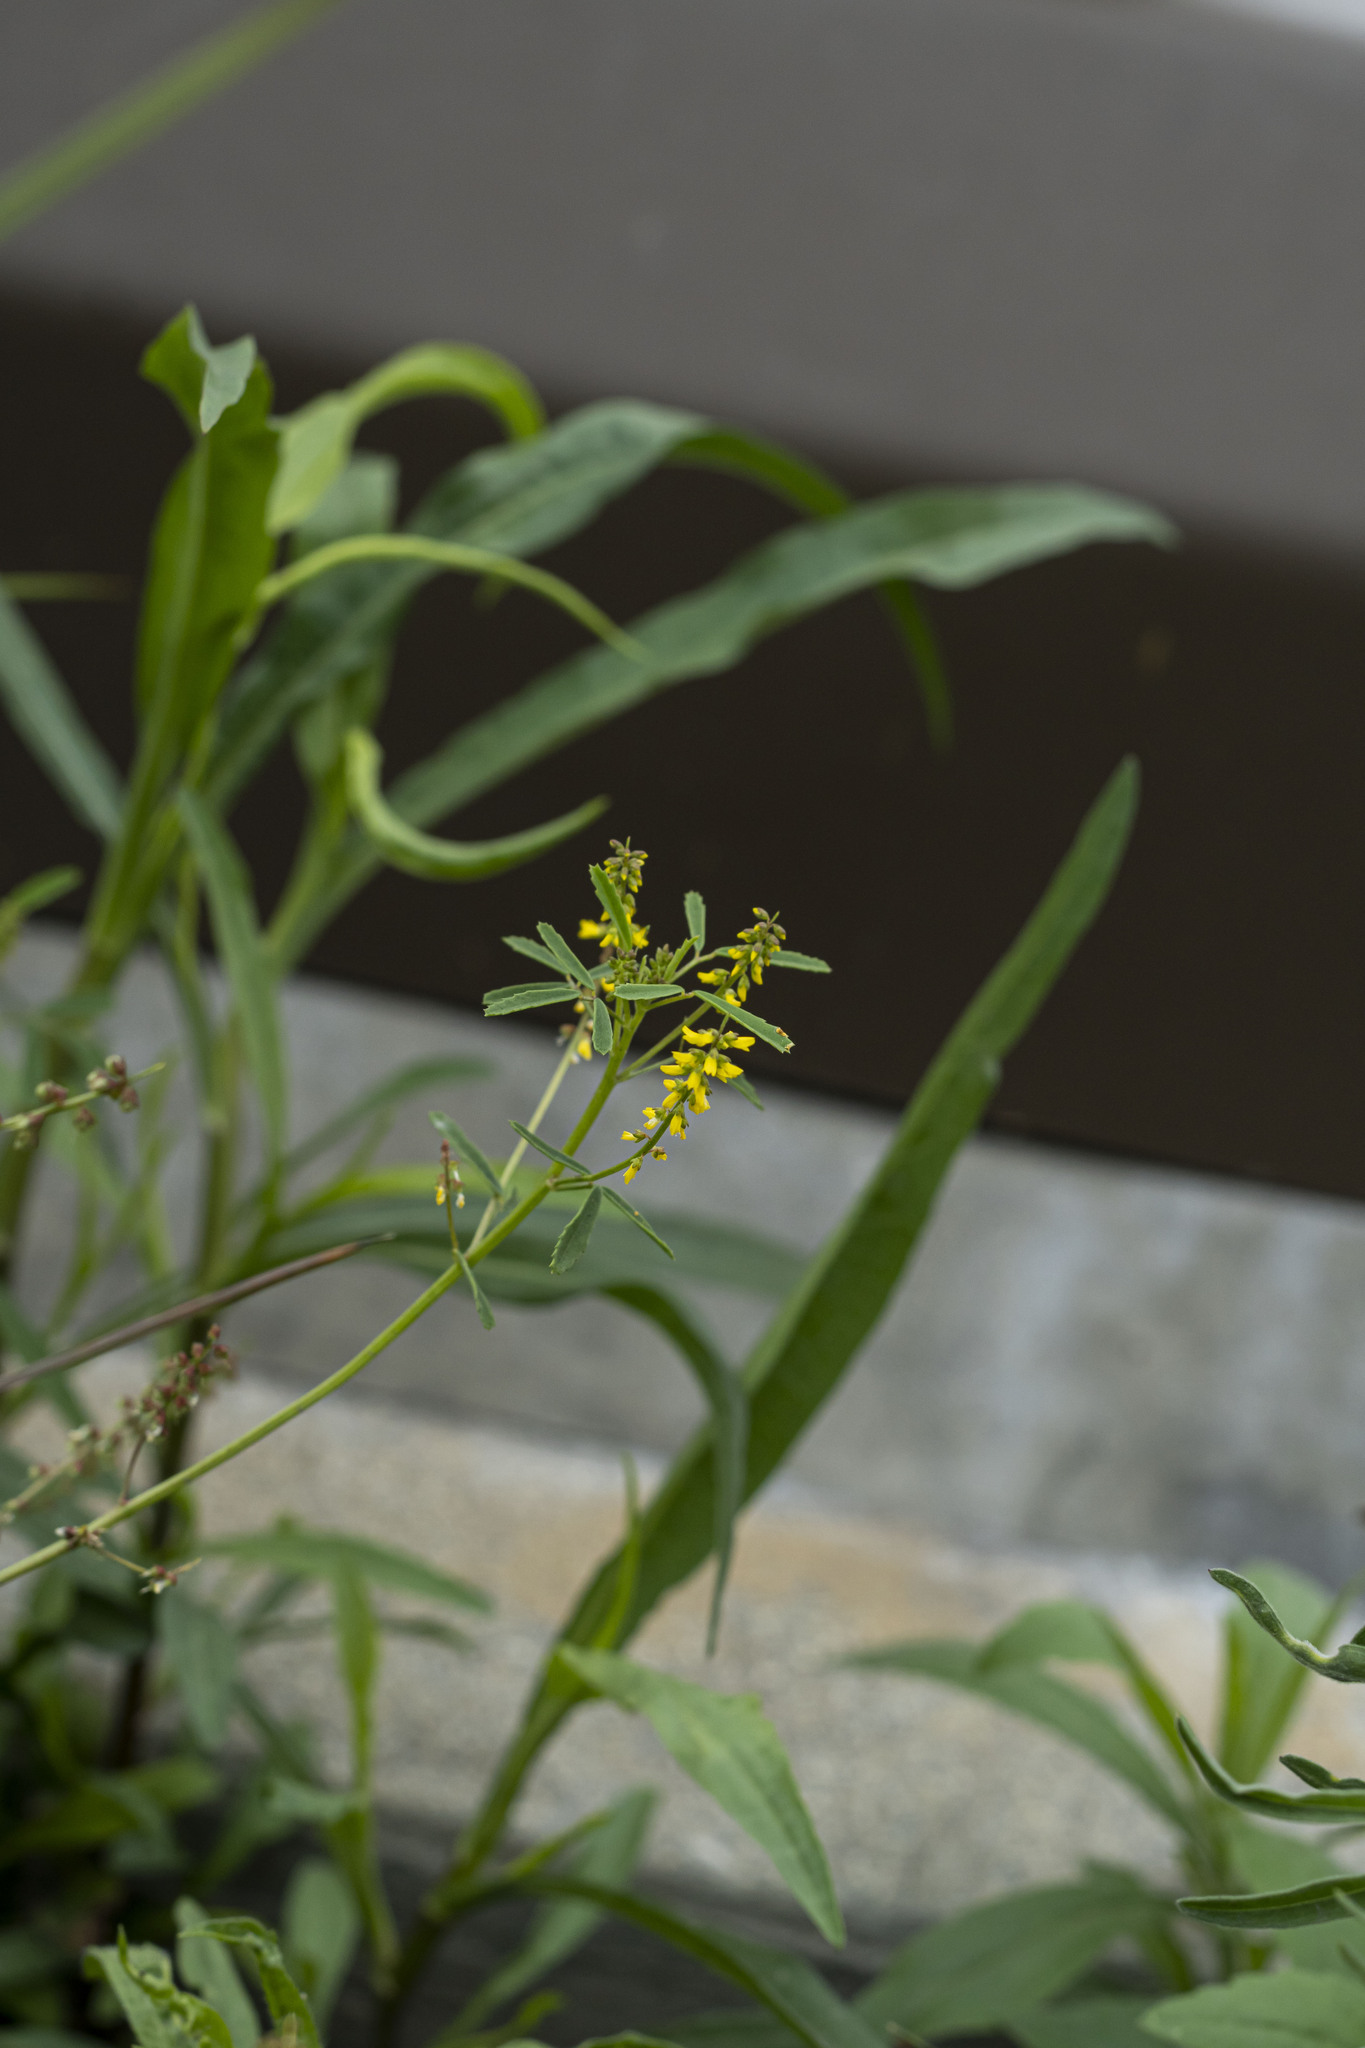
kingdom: Plantae
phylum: Tracheophyta
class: Magnoliopsida
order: Fabales
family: Fabaceae
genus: Melilotus
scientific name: Melilotus indicus
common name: Small melilot
